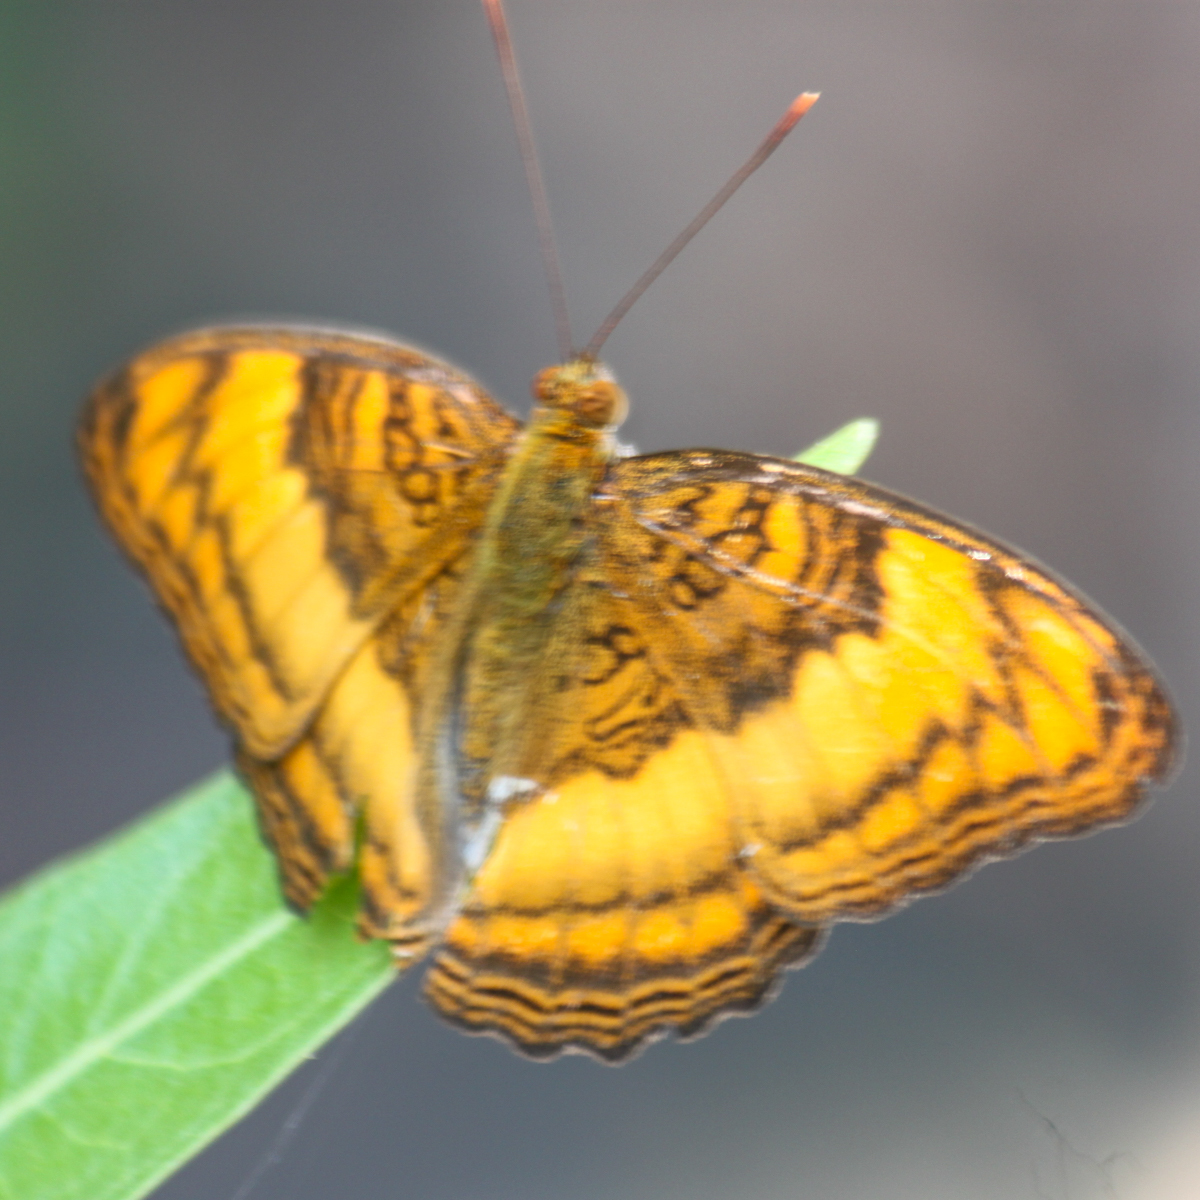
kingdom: Animalia
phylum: Arthropoda
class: Insecta
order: Lepidoptera
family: Nymphalidae
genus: Pandita
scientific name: Pandita sinope
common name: Colonel
